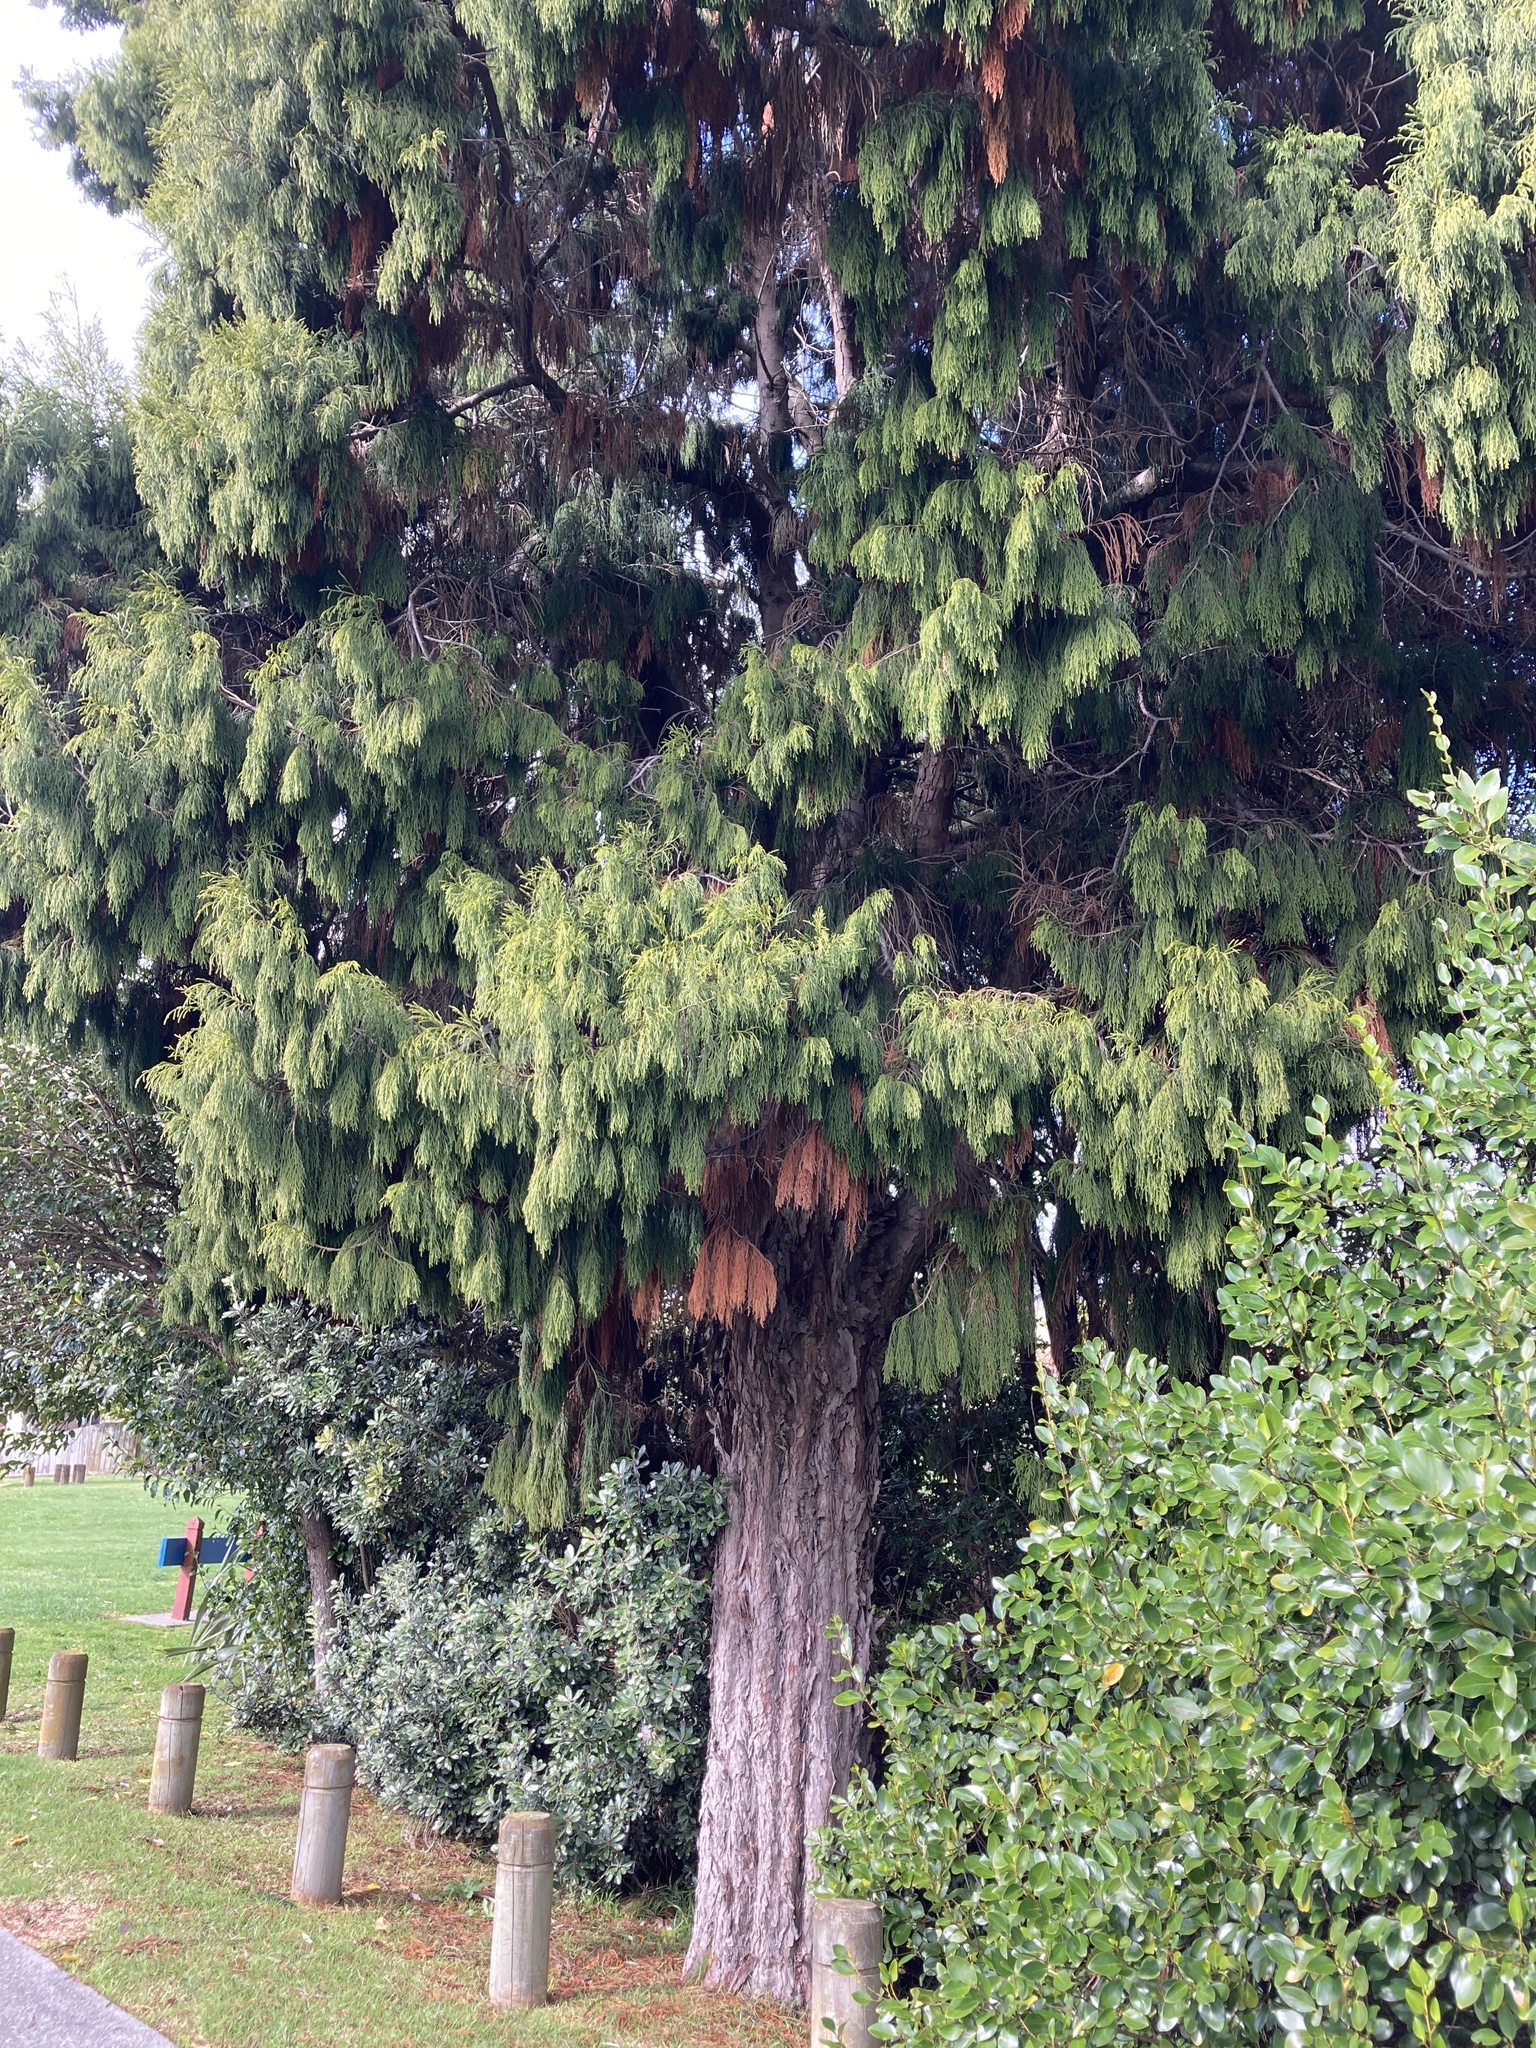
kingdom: Plantae
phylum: Tracheophyta
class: Pinopsida
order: Pinales
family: Podocarpaceae
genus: Dacrydium
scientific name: Dacrydium cupressinum
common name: Red pine
